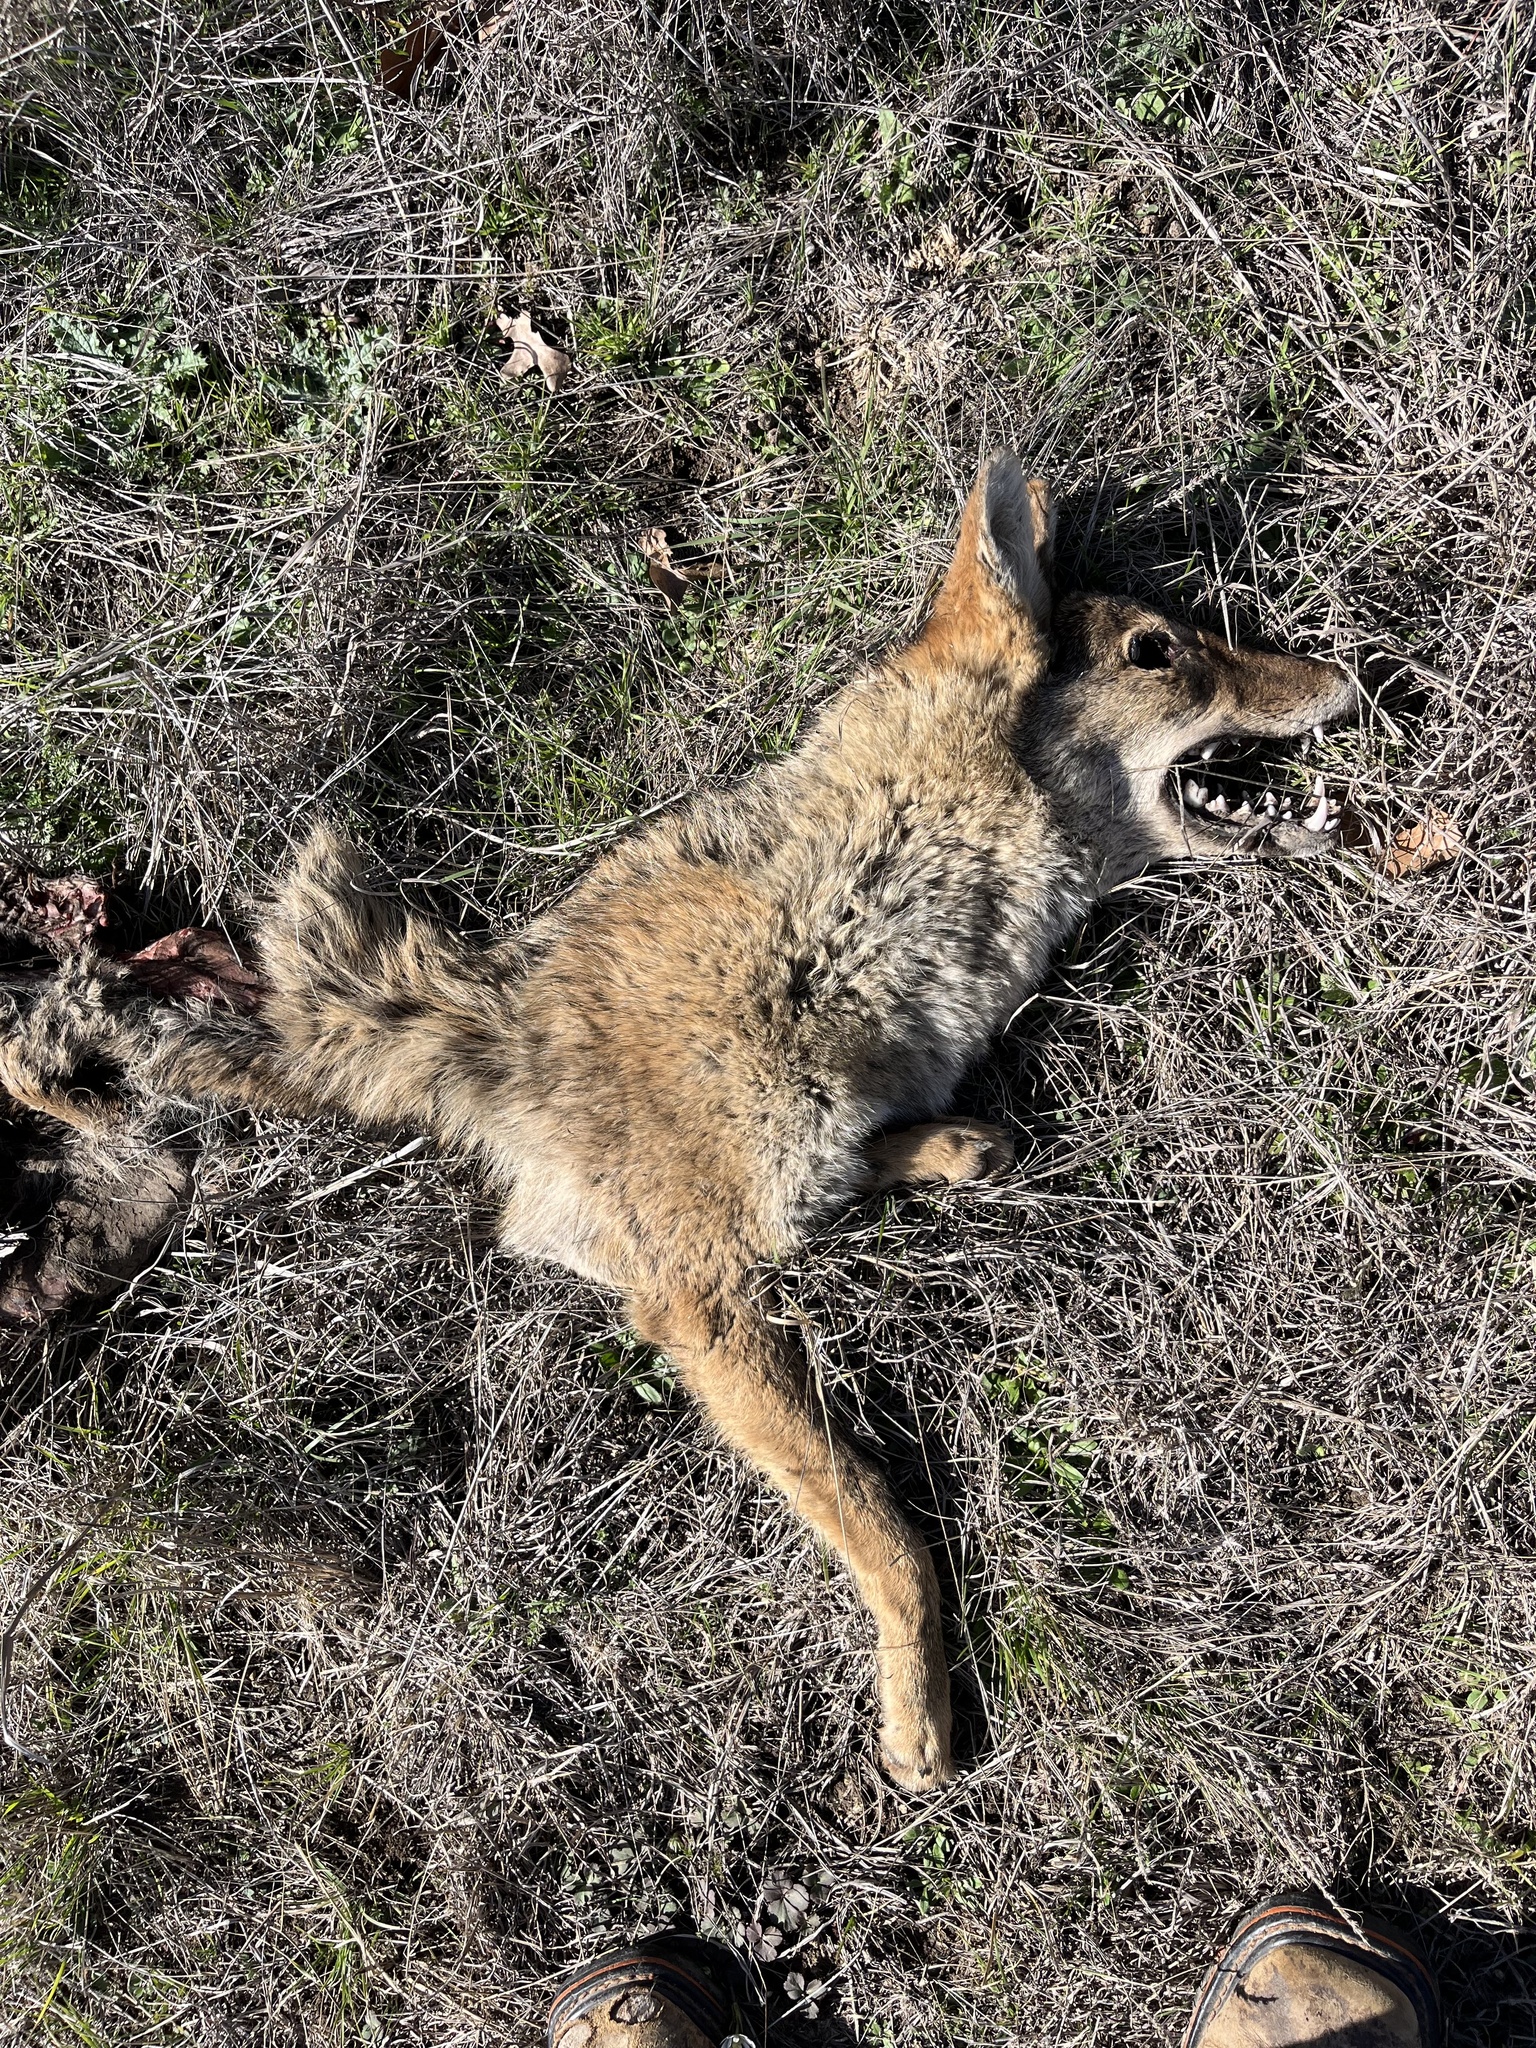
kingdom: Animalia
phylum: Chordata
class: Mammalia
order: Carnivora
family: Canidae
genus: Canis
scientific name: Canis latrans
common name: Coyote
